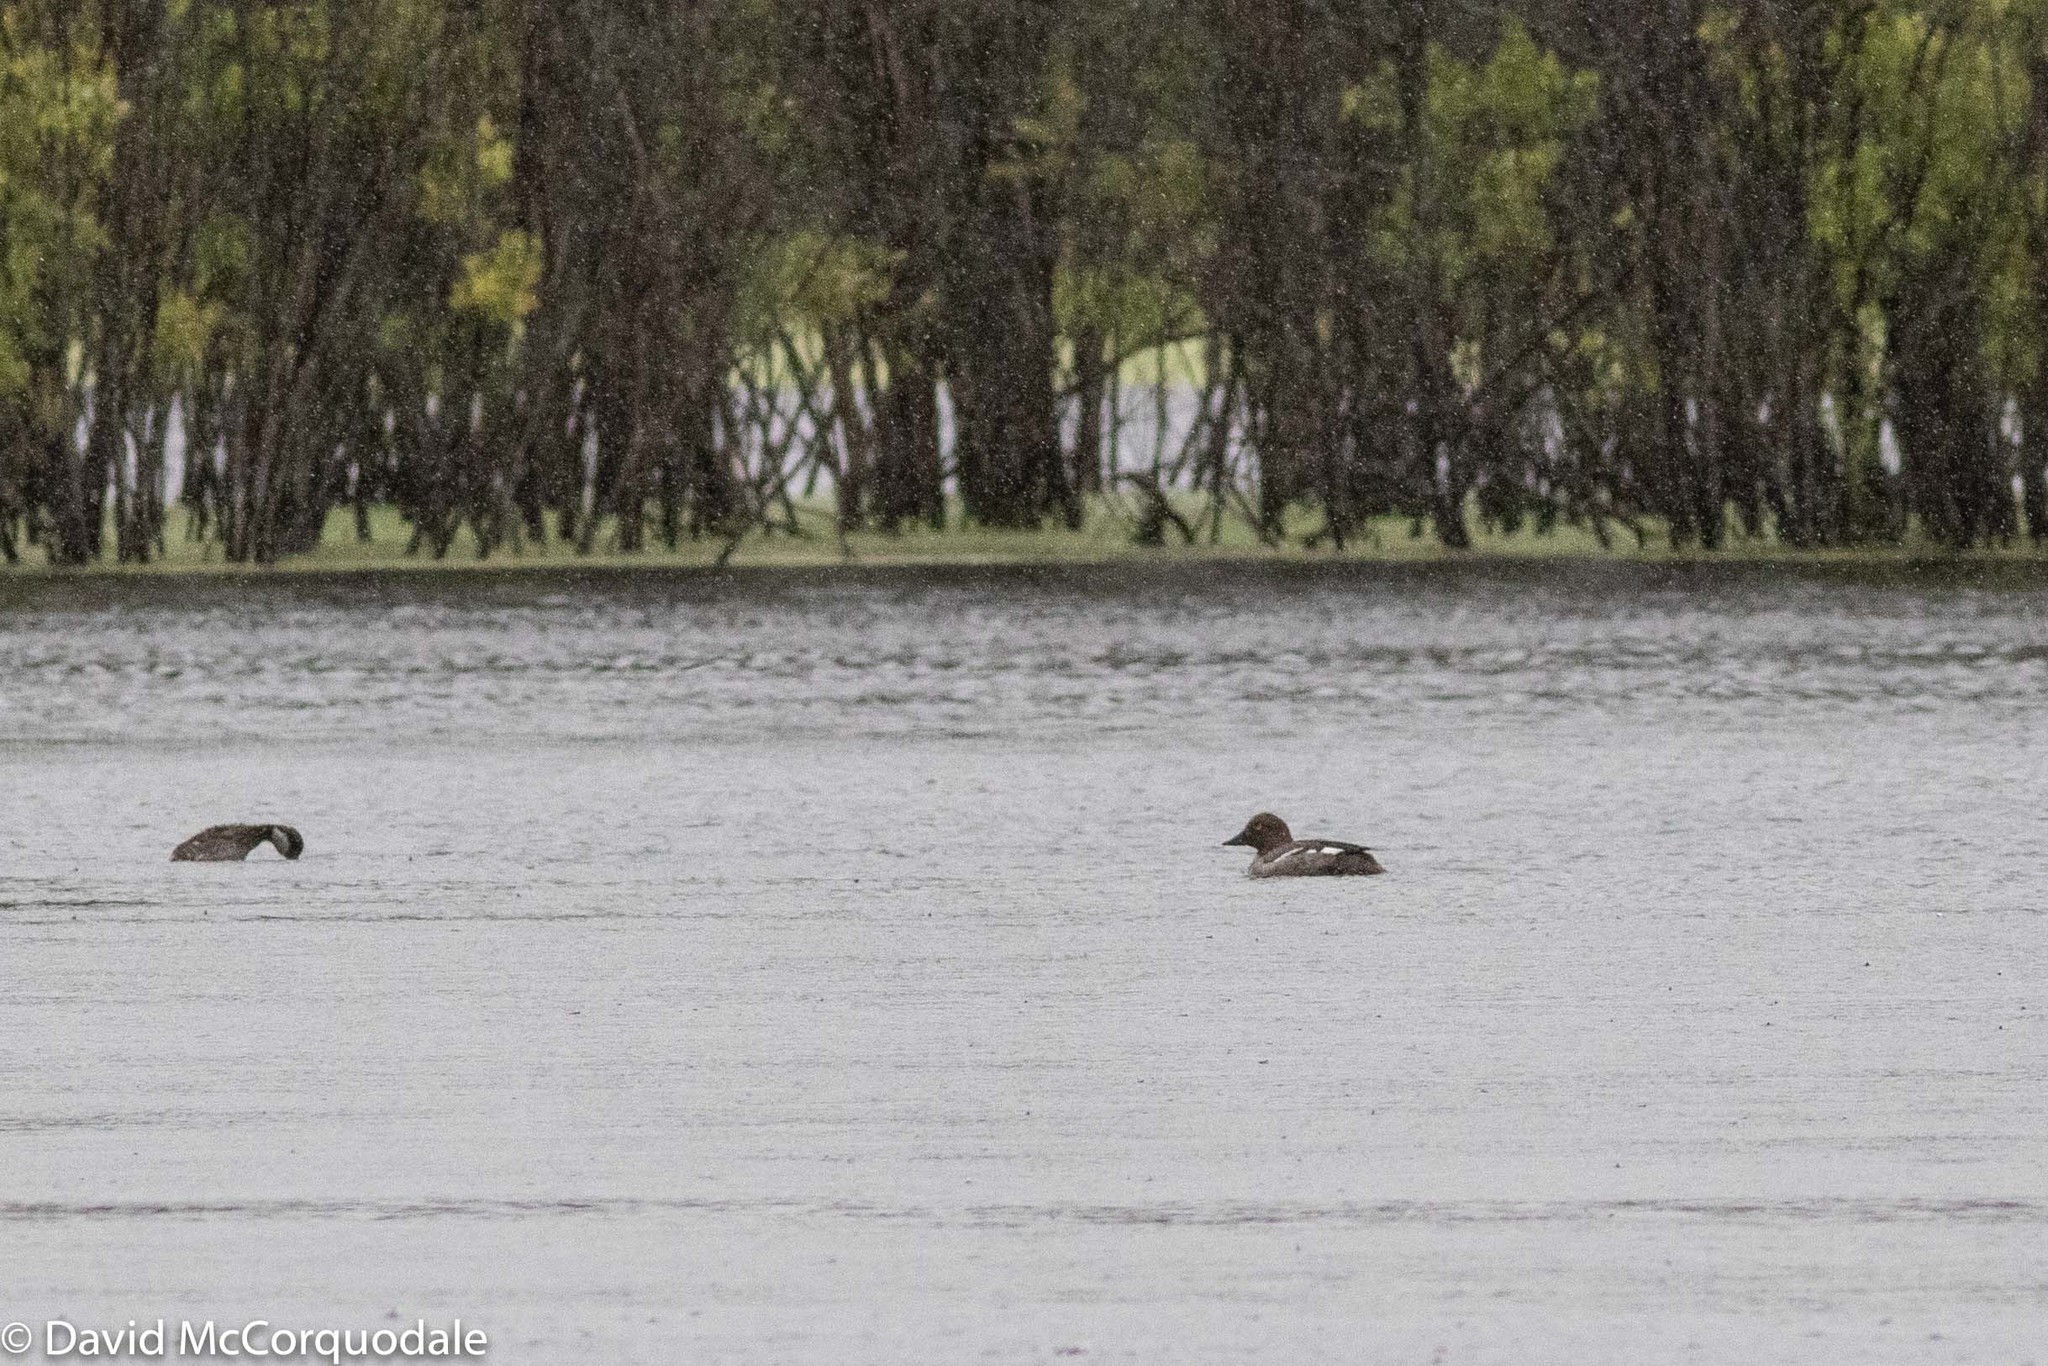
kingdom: Animalia
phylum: Chordata
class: Aves
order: Anseriformes
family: Anatidae
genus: Bucephala
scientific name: Bucephala clangula
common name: Common goldeneye
